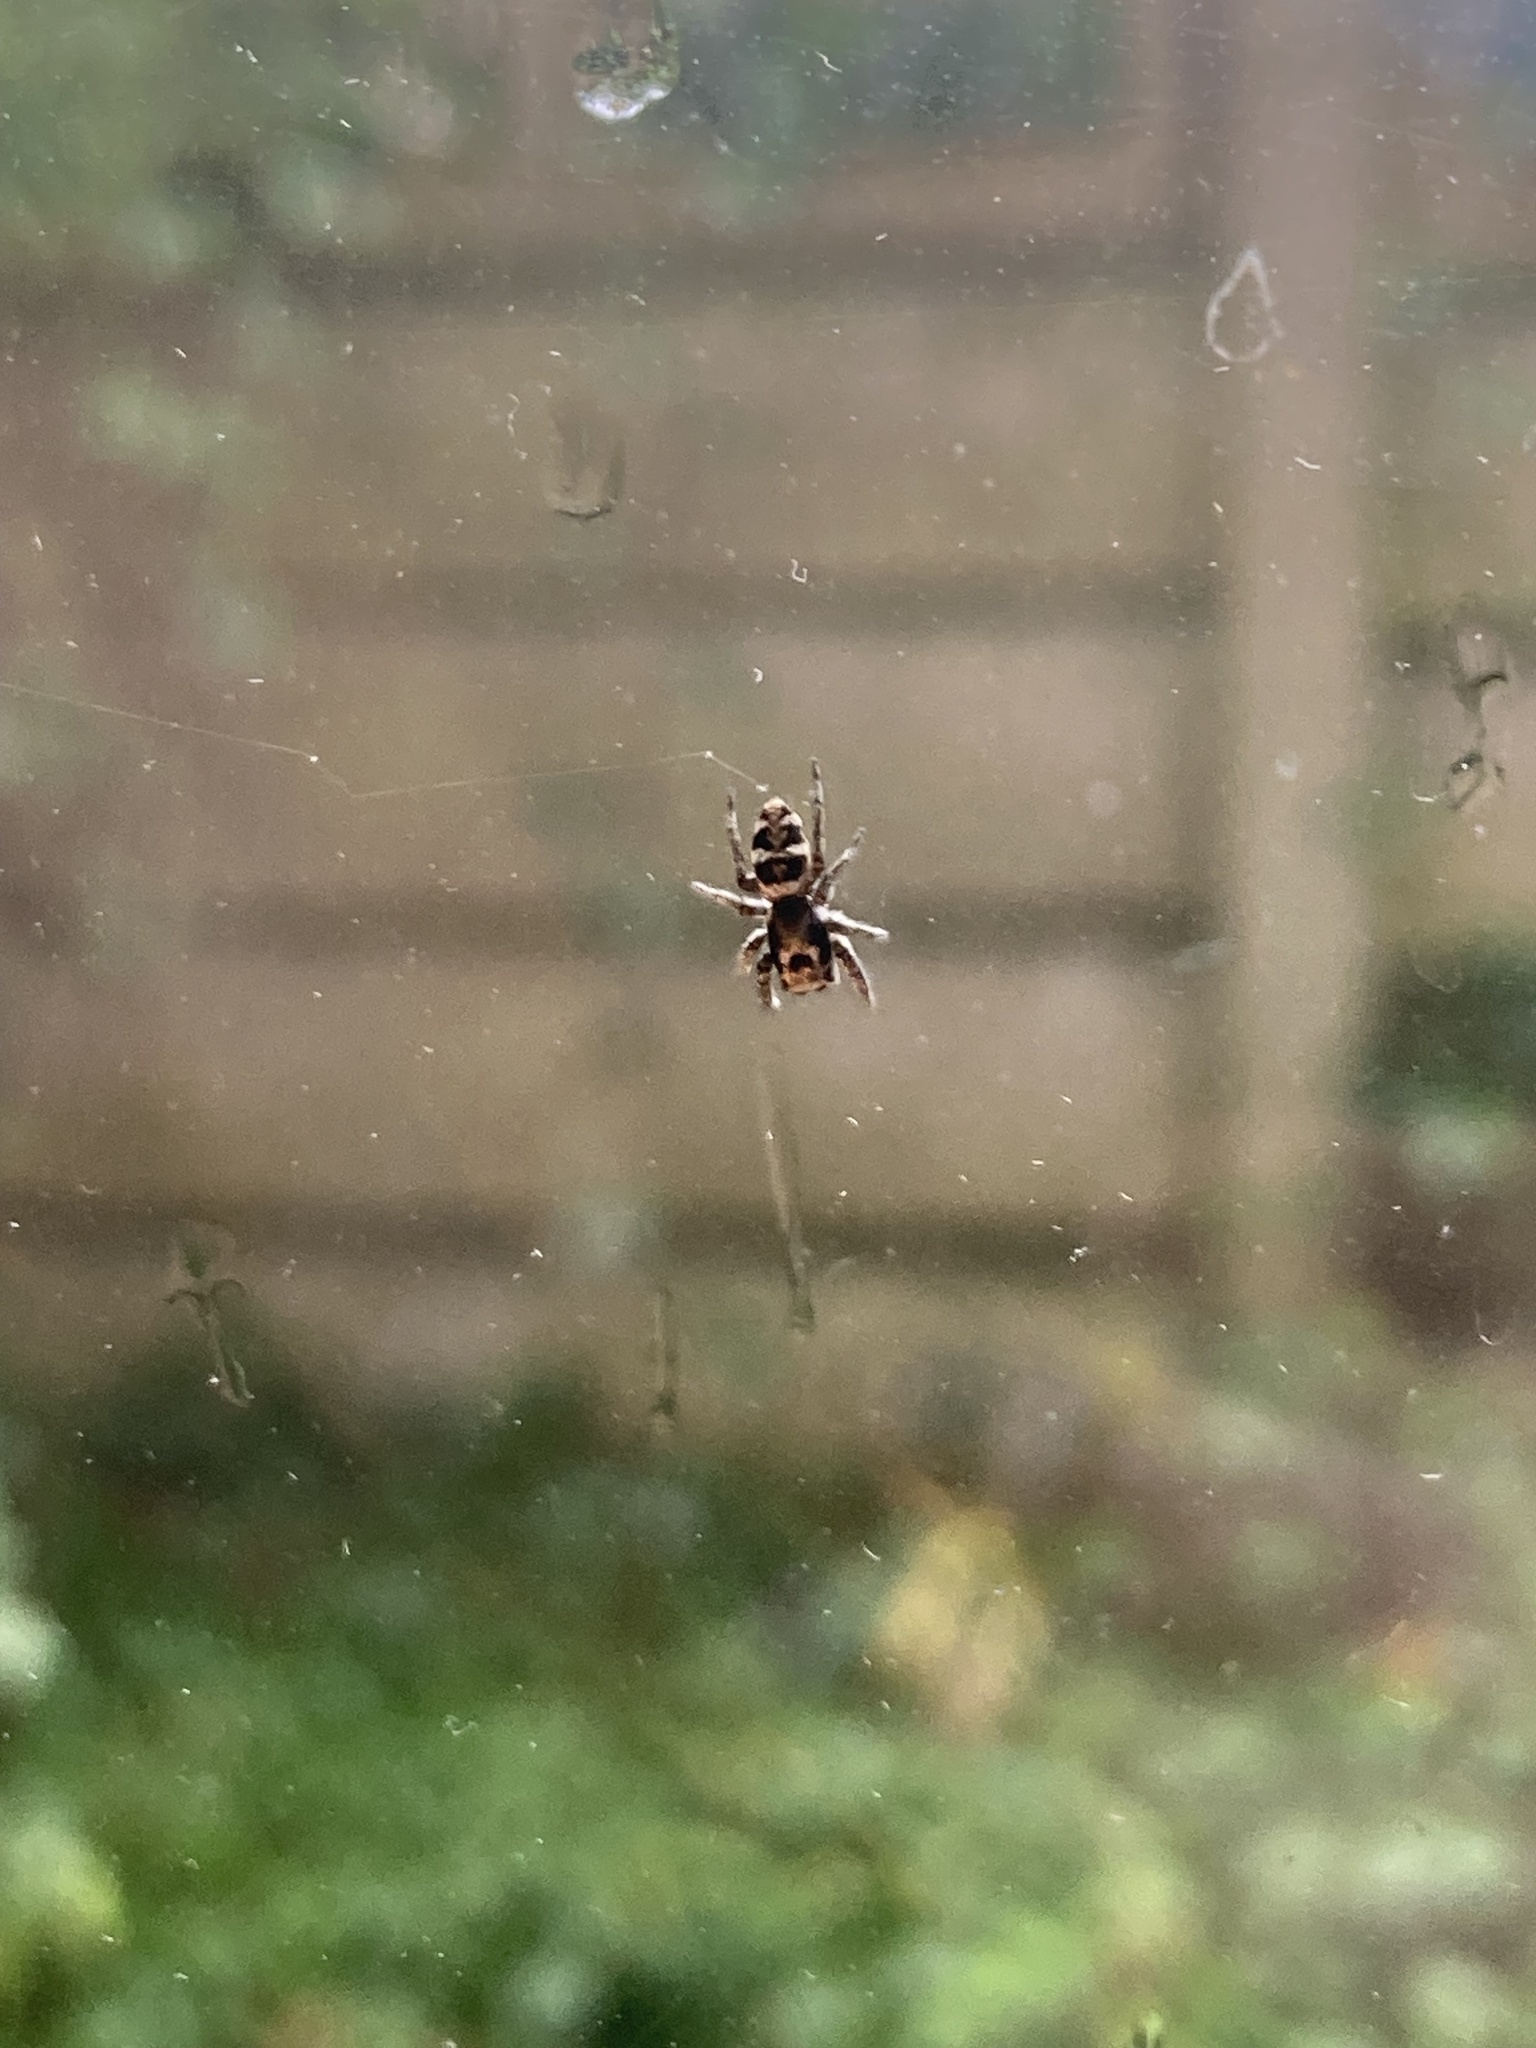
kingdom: Animalia
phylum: Arthropoda
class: Arachnida
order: Araneae
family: Salticidae
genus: Salticus
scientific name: Salticus scenicus
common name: Zebra jumper
